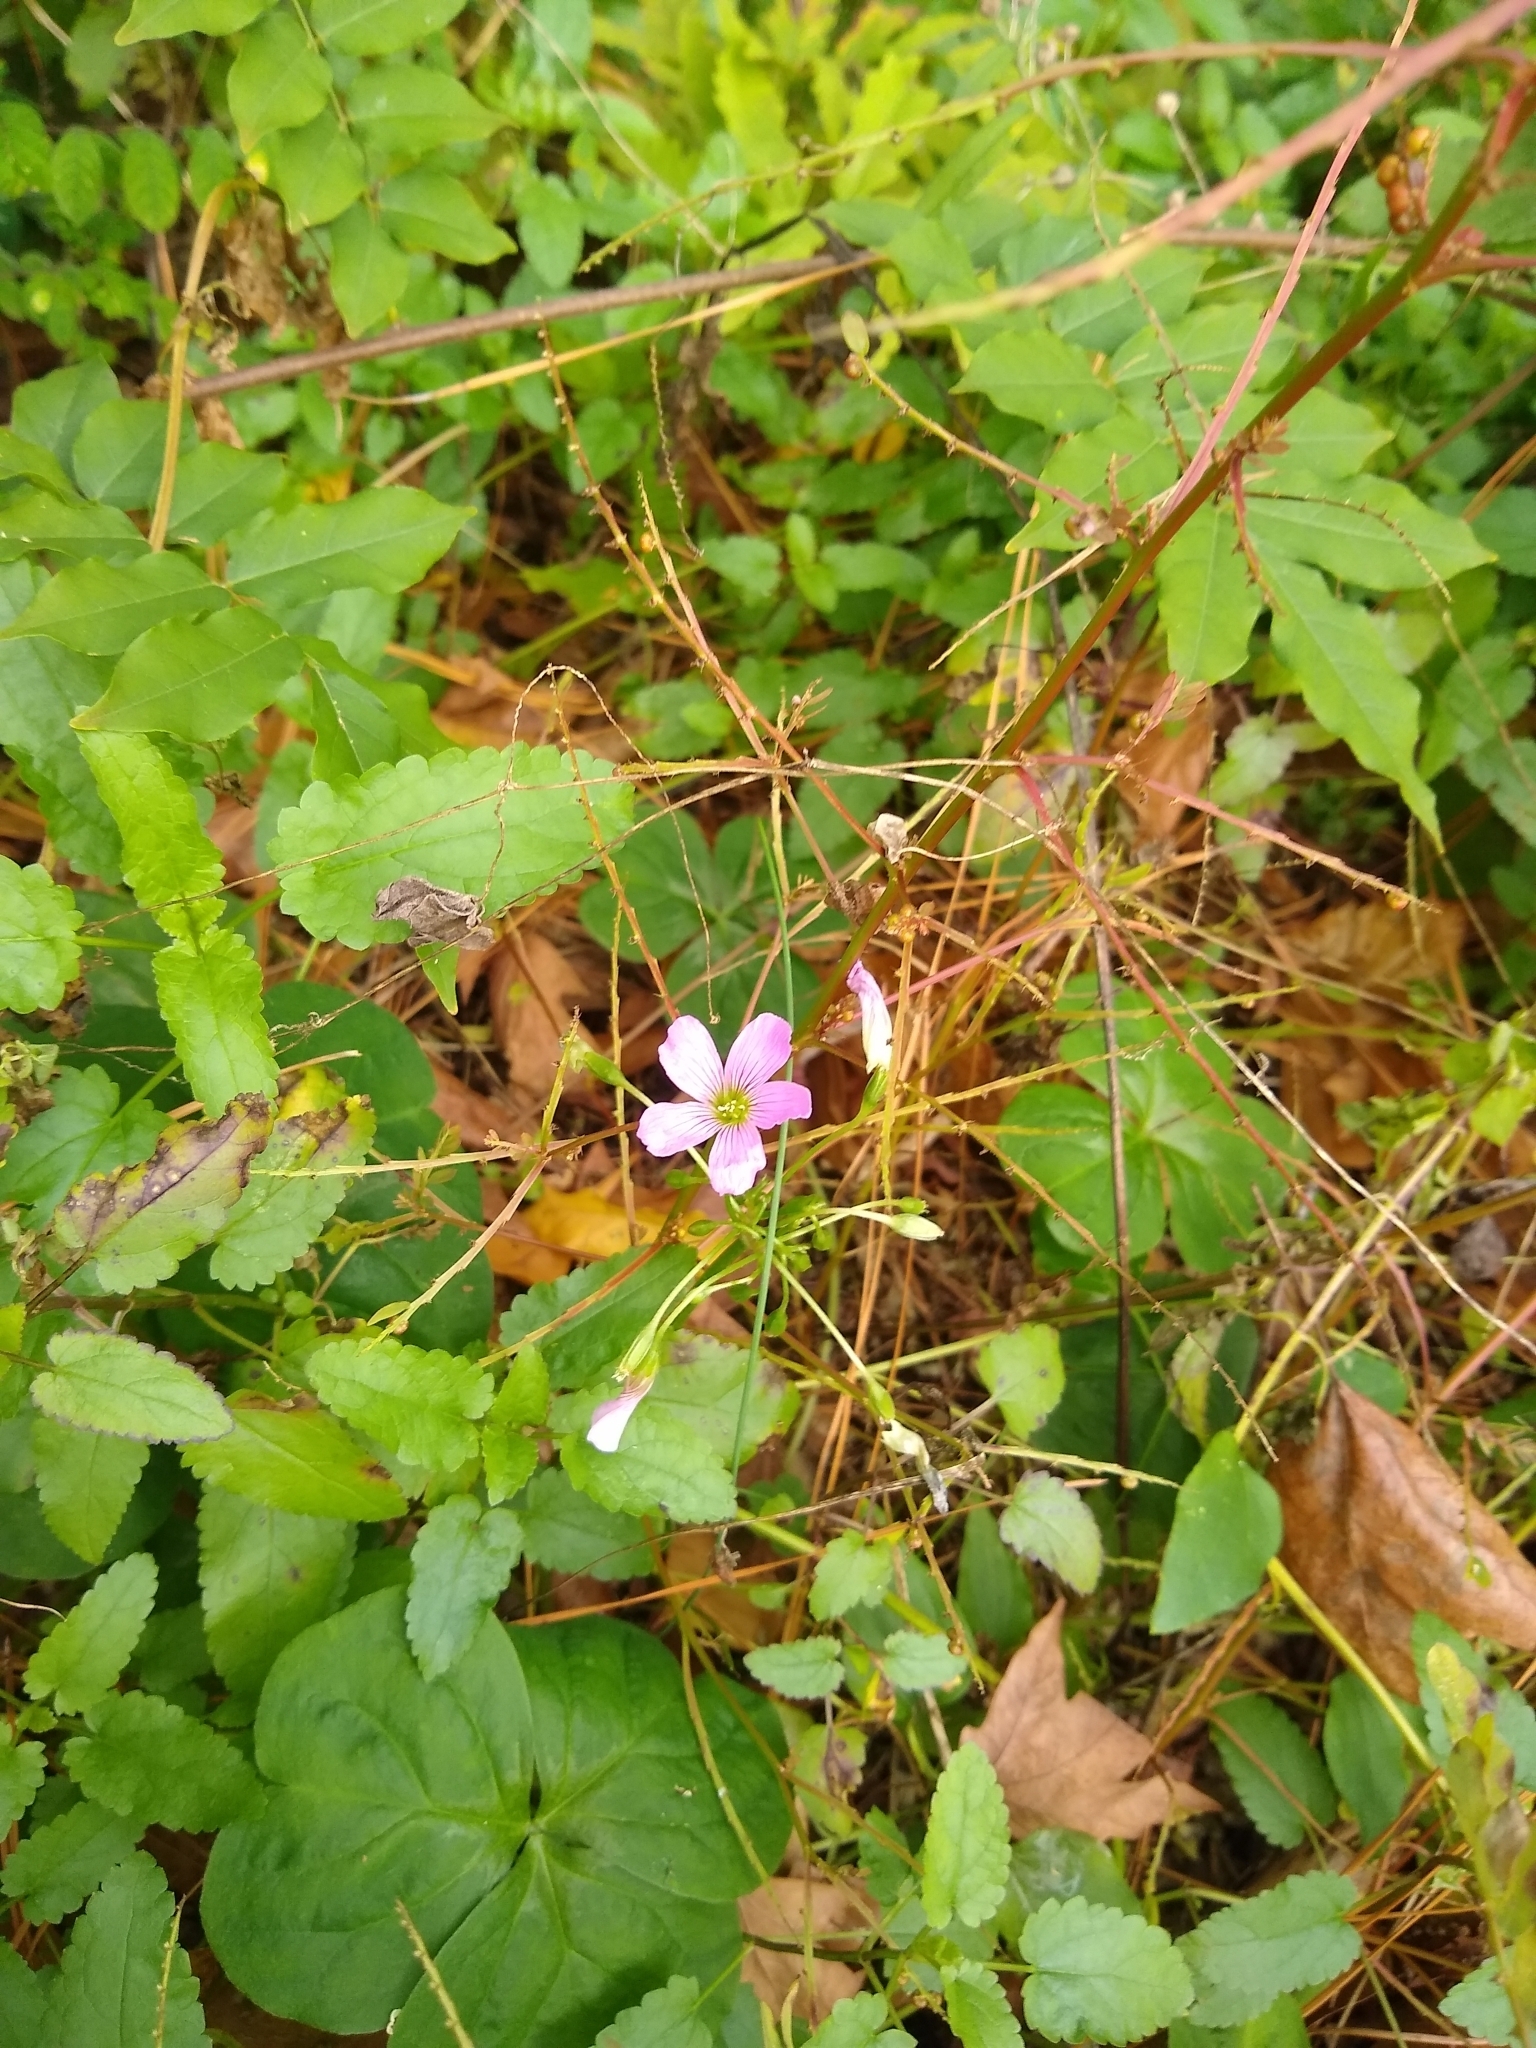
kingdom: Plantae
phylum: Tracheophyta
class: Magnoliopsida
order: Oxalidales
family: Oxalidaceae
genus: Oxalis
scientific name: Oxalis debilis
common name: Large-flowered pink-sorrel
